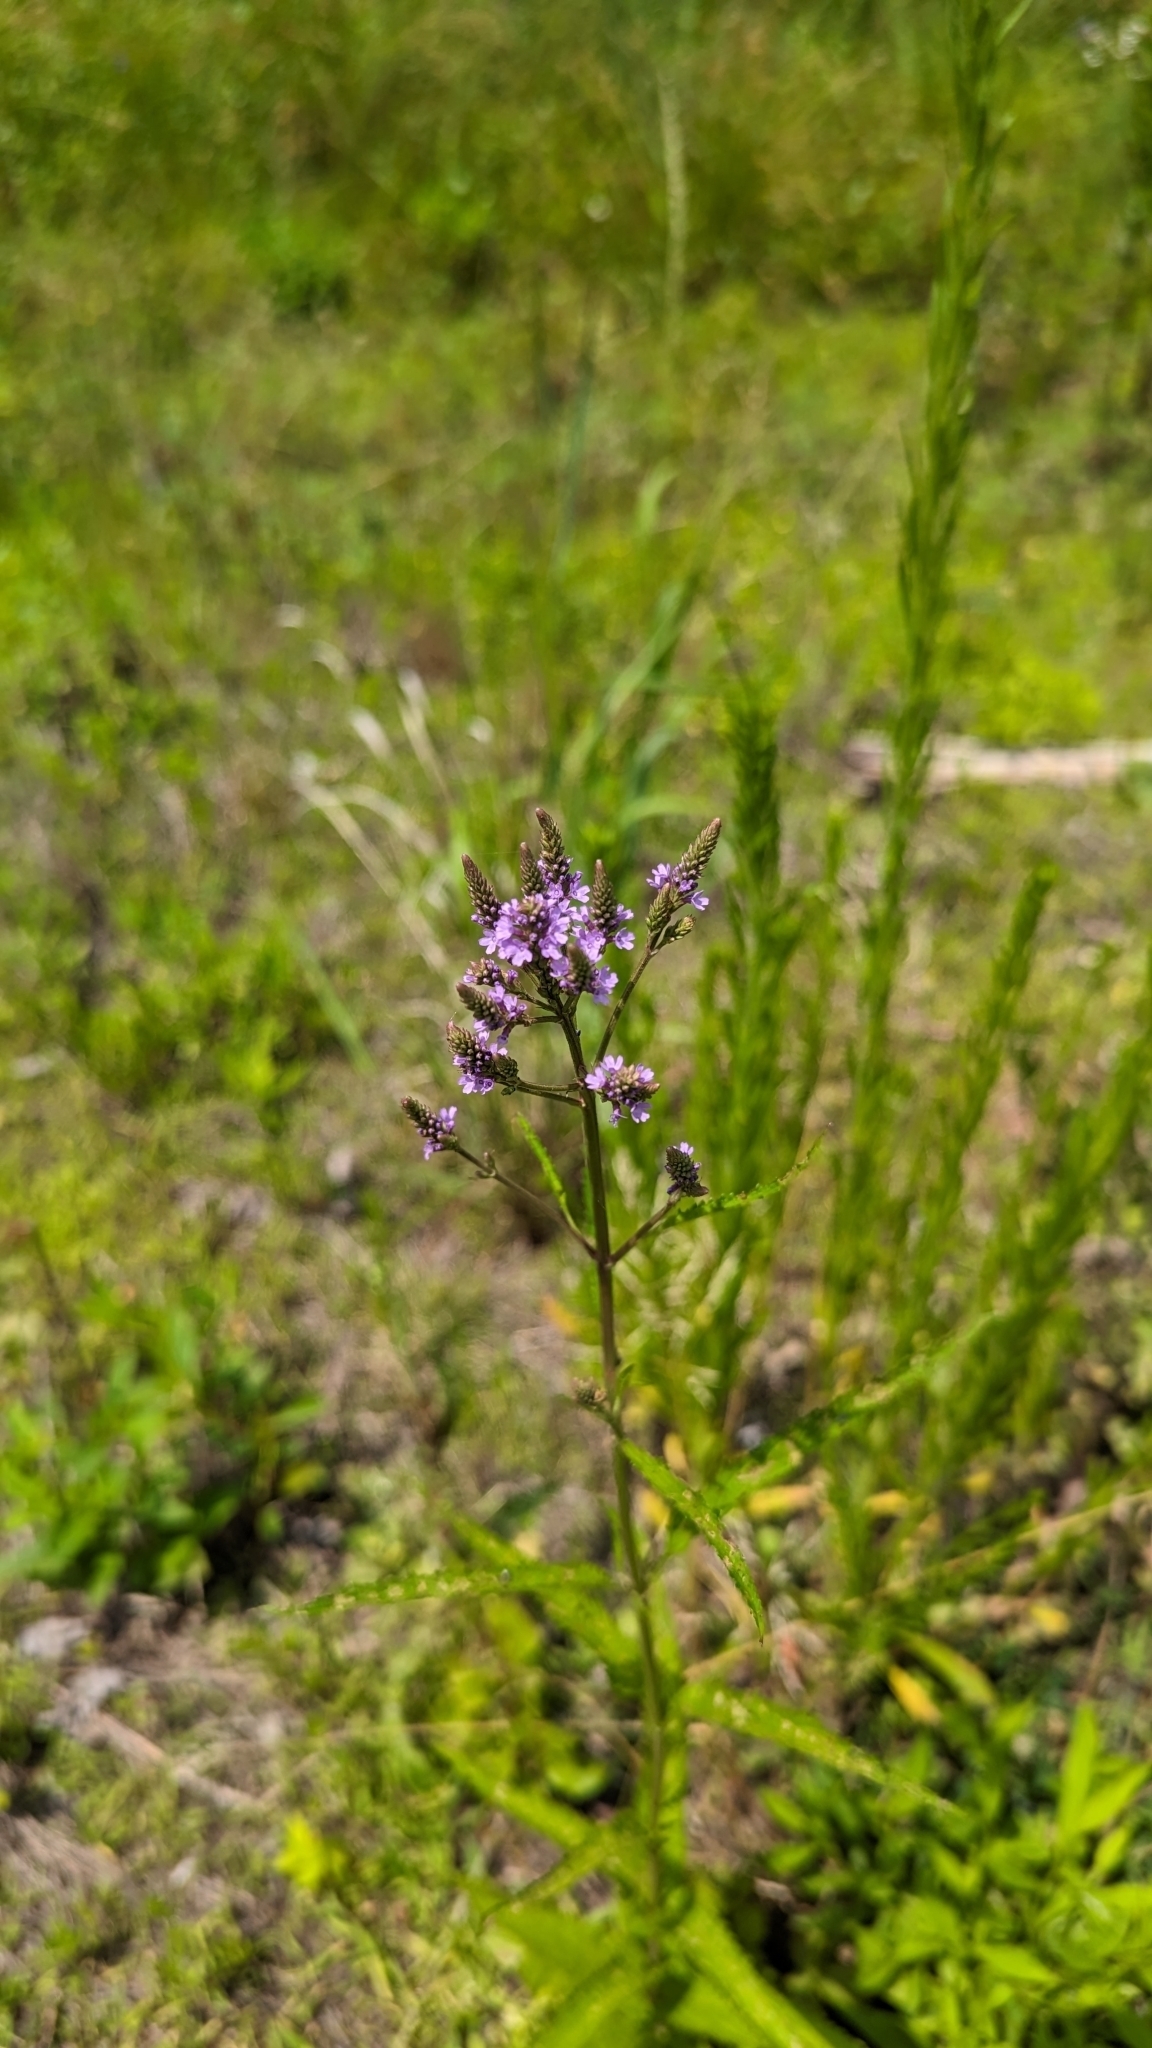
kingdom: Plantae
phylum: Tracheophyta
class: Magnoliopsida
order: Lamiales
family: Verbenaceae
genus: Verbena
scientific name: Verbena hastata
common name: American blue vervain
